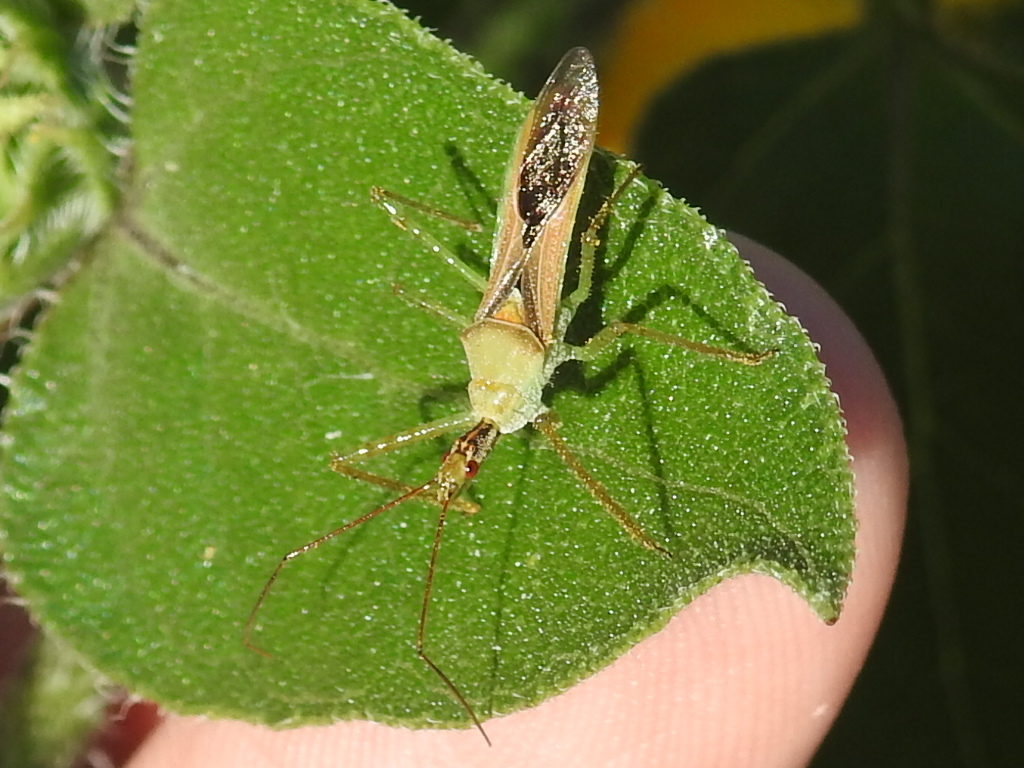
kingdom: Animalia
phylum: Arthropoda
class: Insecta
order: Hemiptera
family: Reduviidae
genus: Zelus
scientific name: Zelus renardii
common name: Assassin bug
